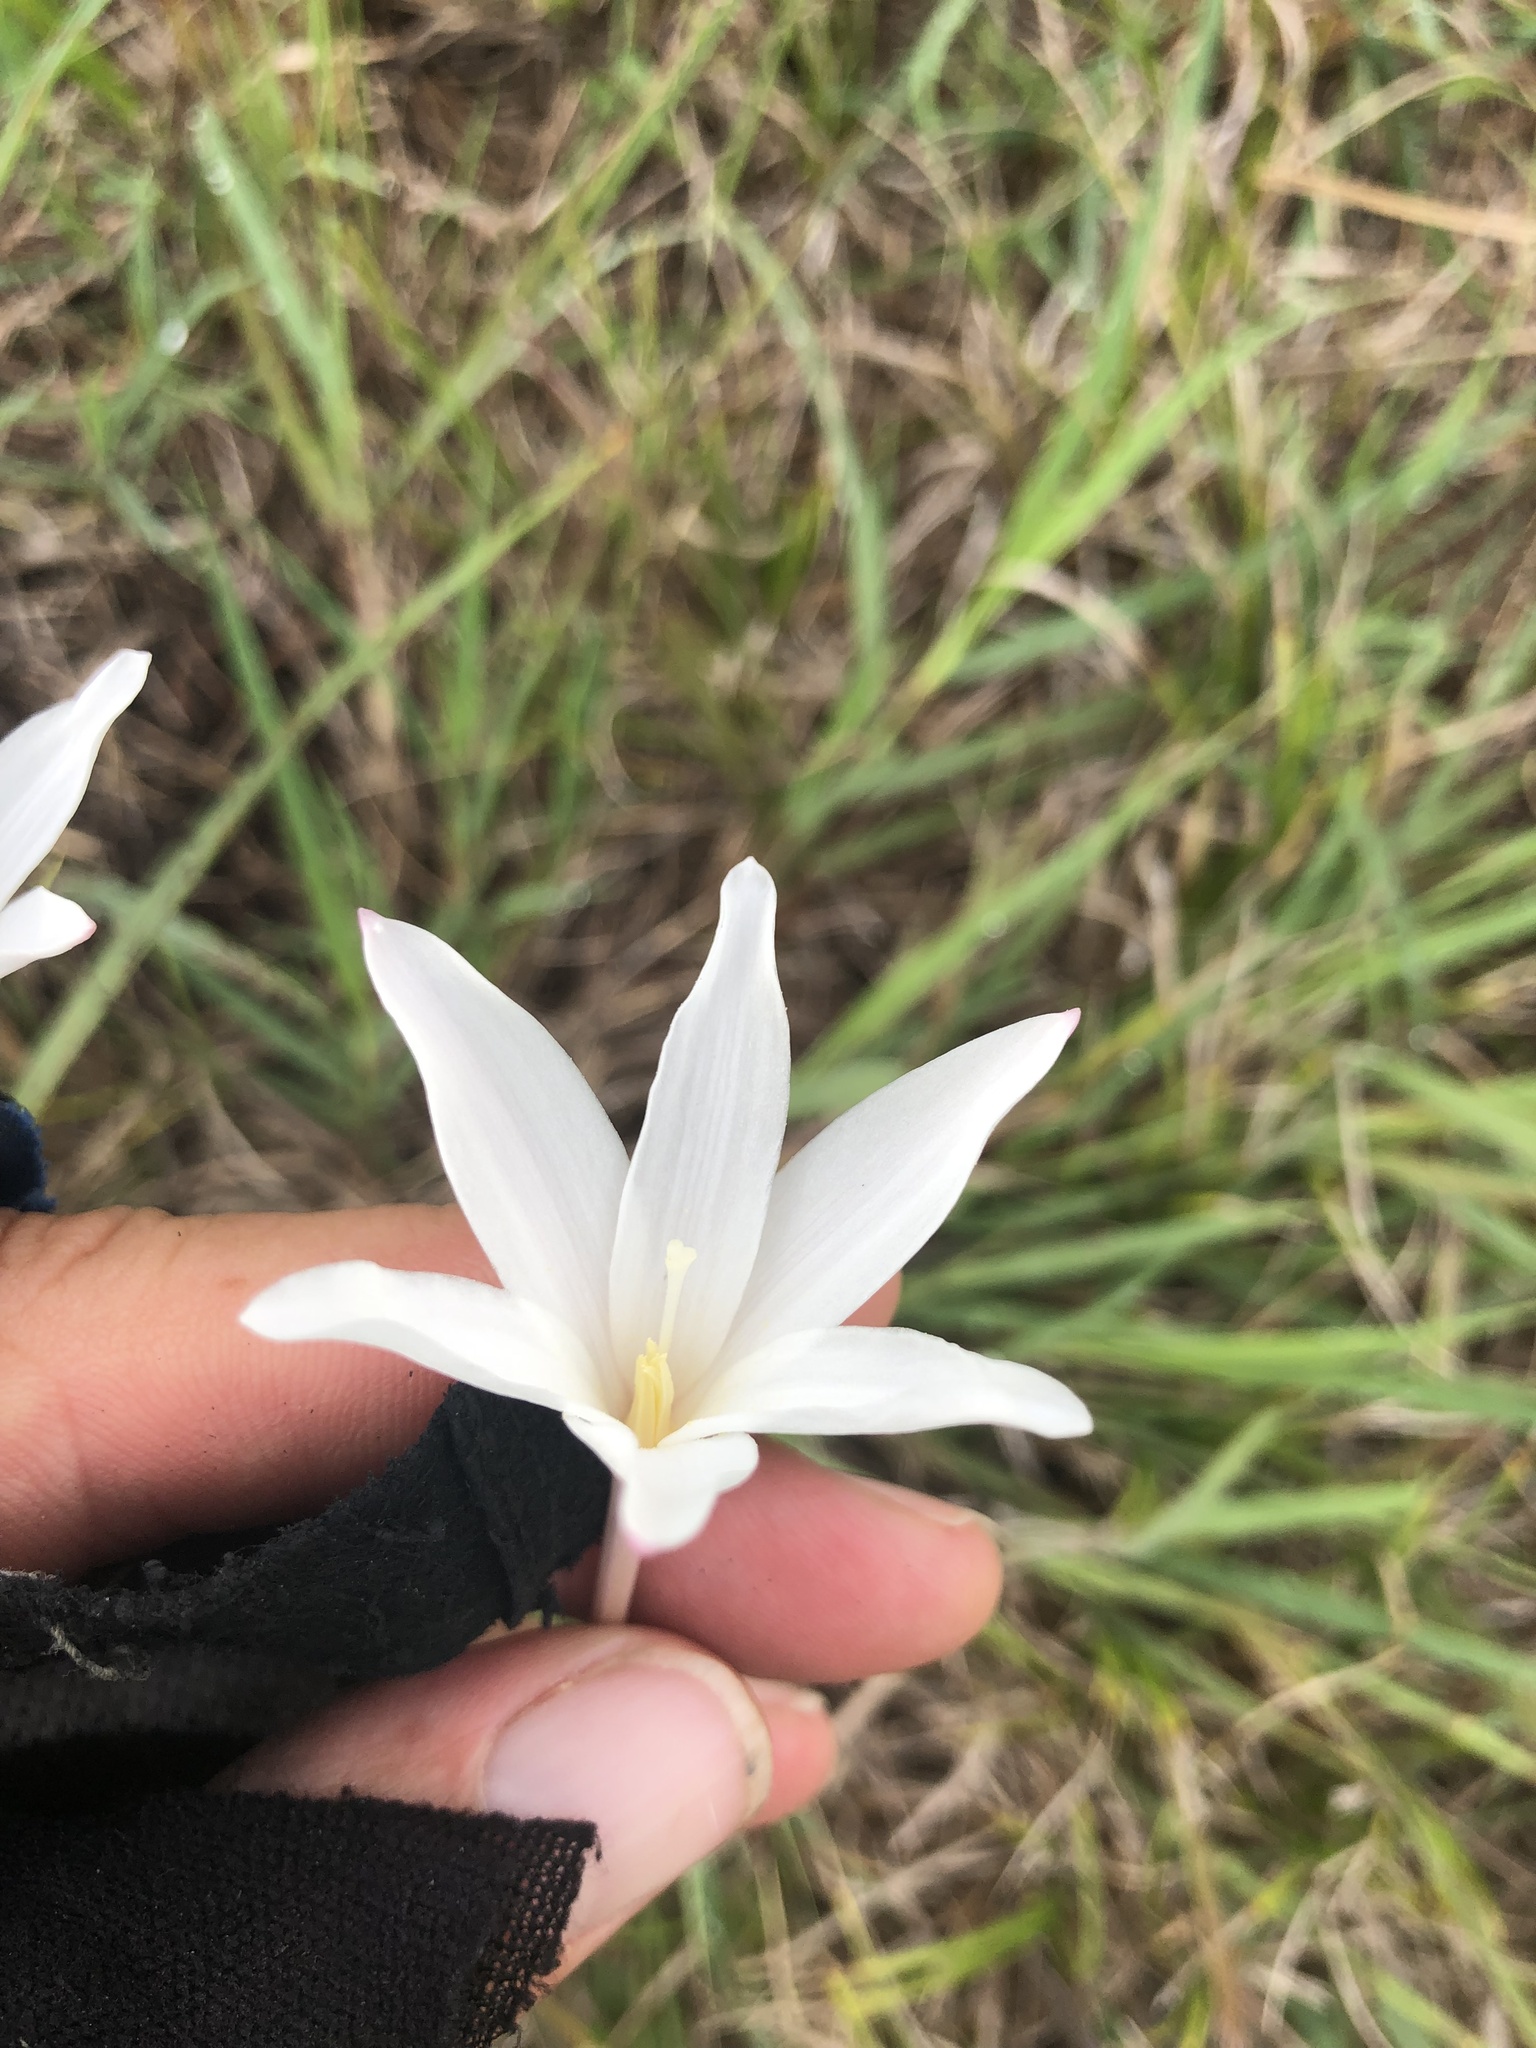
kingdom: Plantae
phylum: Tracheophyta
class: Liliopsida
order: Asparagales
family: Amaryllidaceae
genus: Zephyranthes
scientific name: Zephyranthes traubii
